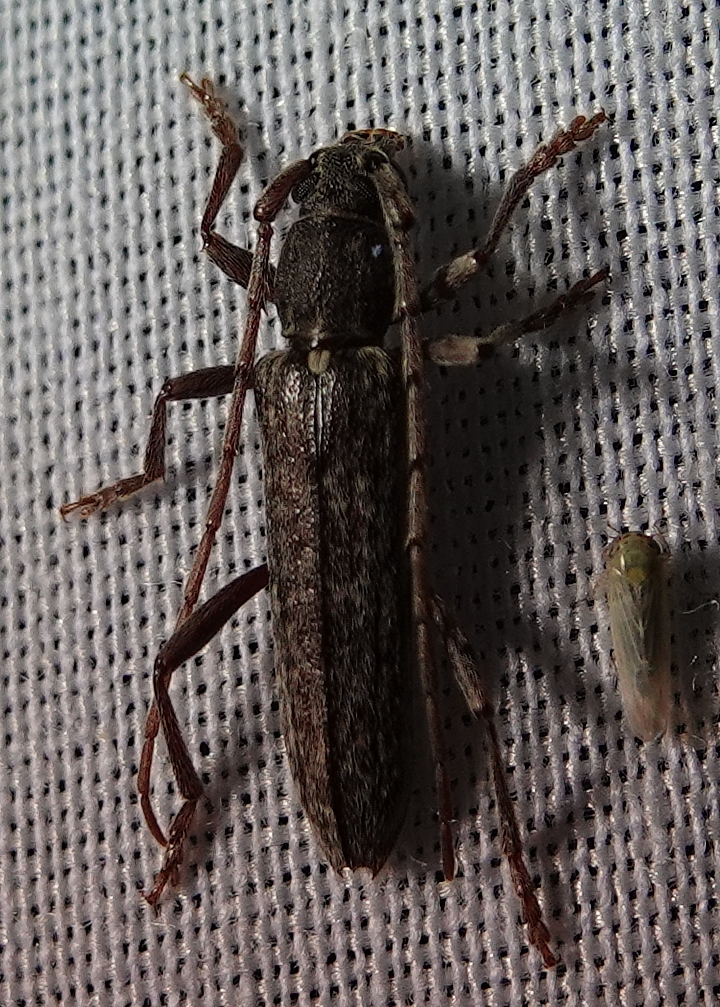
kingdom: Animalia
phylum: Arthropoda
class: Insecta
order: Coleoptera
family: Cerambycidae
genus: Anelaphus
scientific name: Anelaphus villosus
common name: Twig pruner
